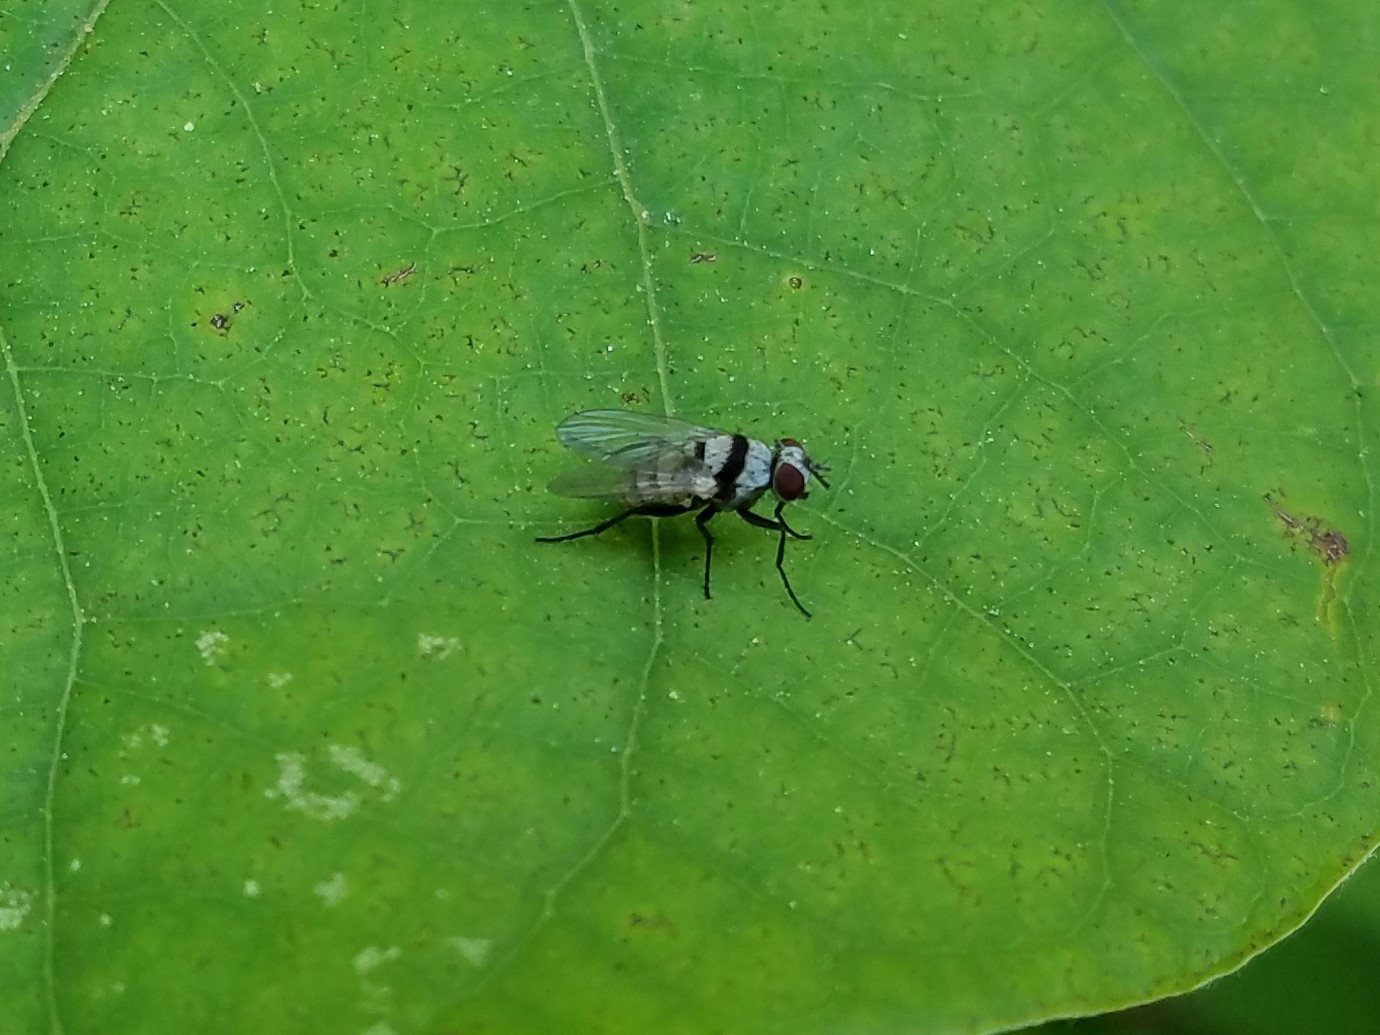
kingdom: Animalia
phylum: Arthropoda
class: Insecta
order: Diptera
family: Anthomyiidae
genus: Anthomyia
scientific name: Anthomyia illocata
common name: Fly
